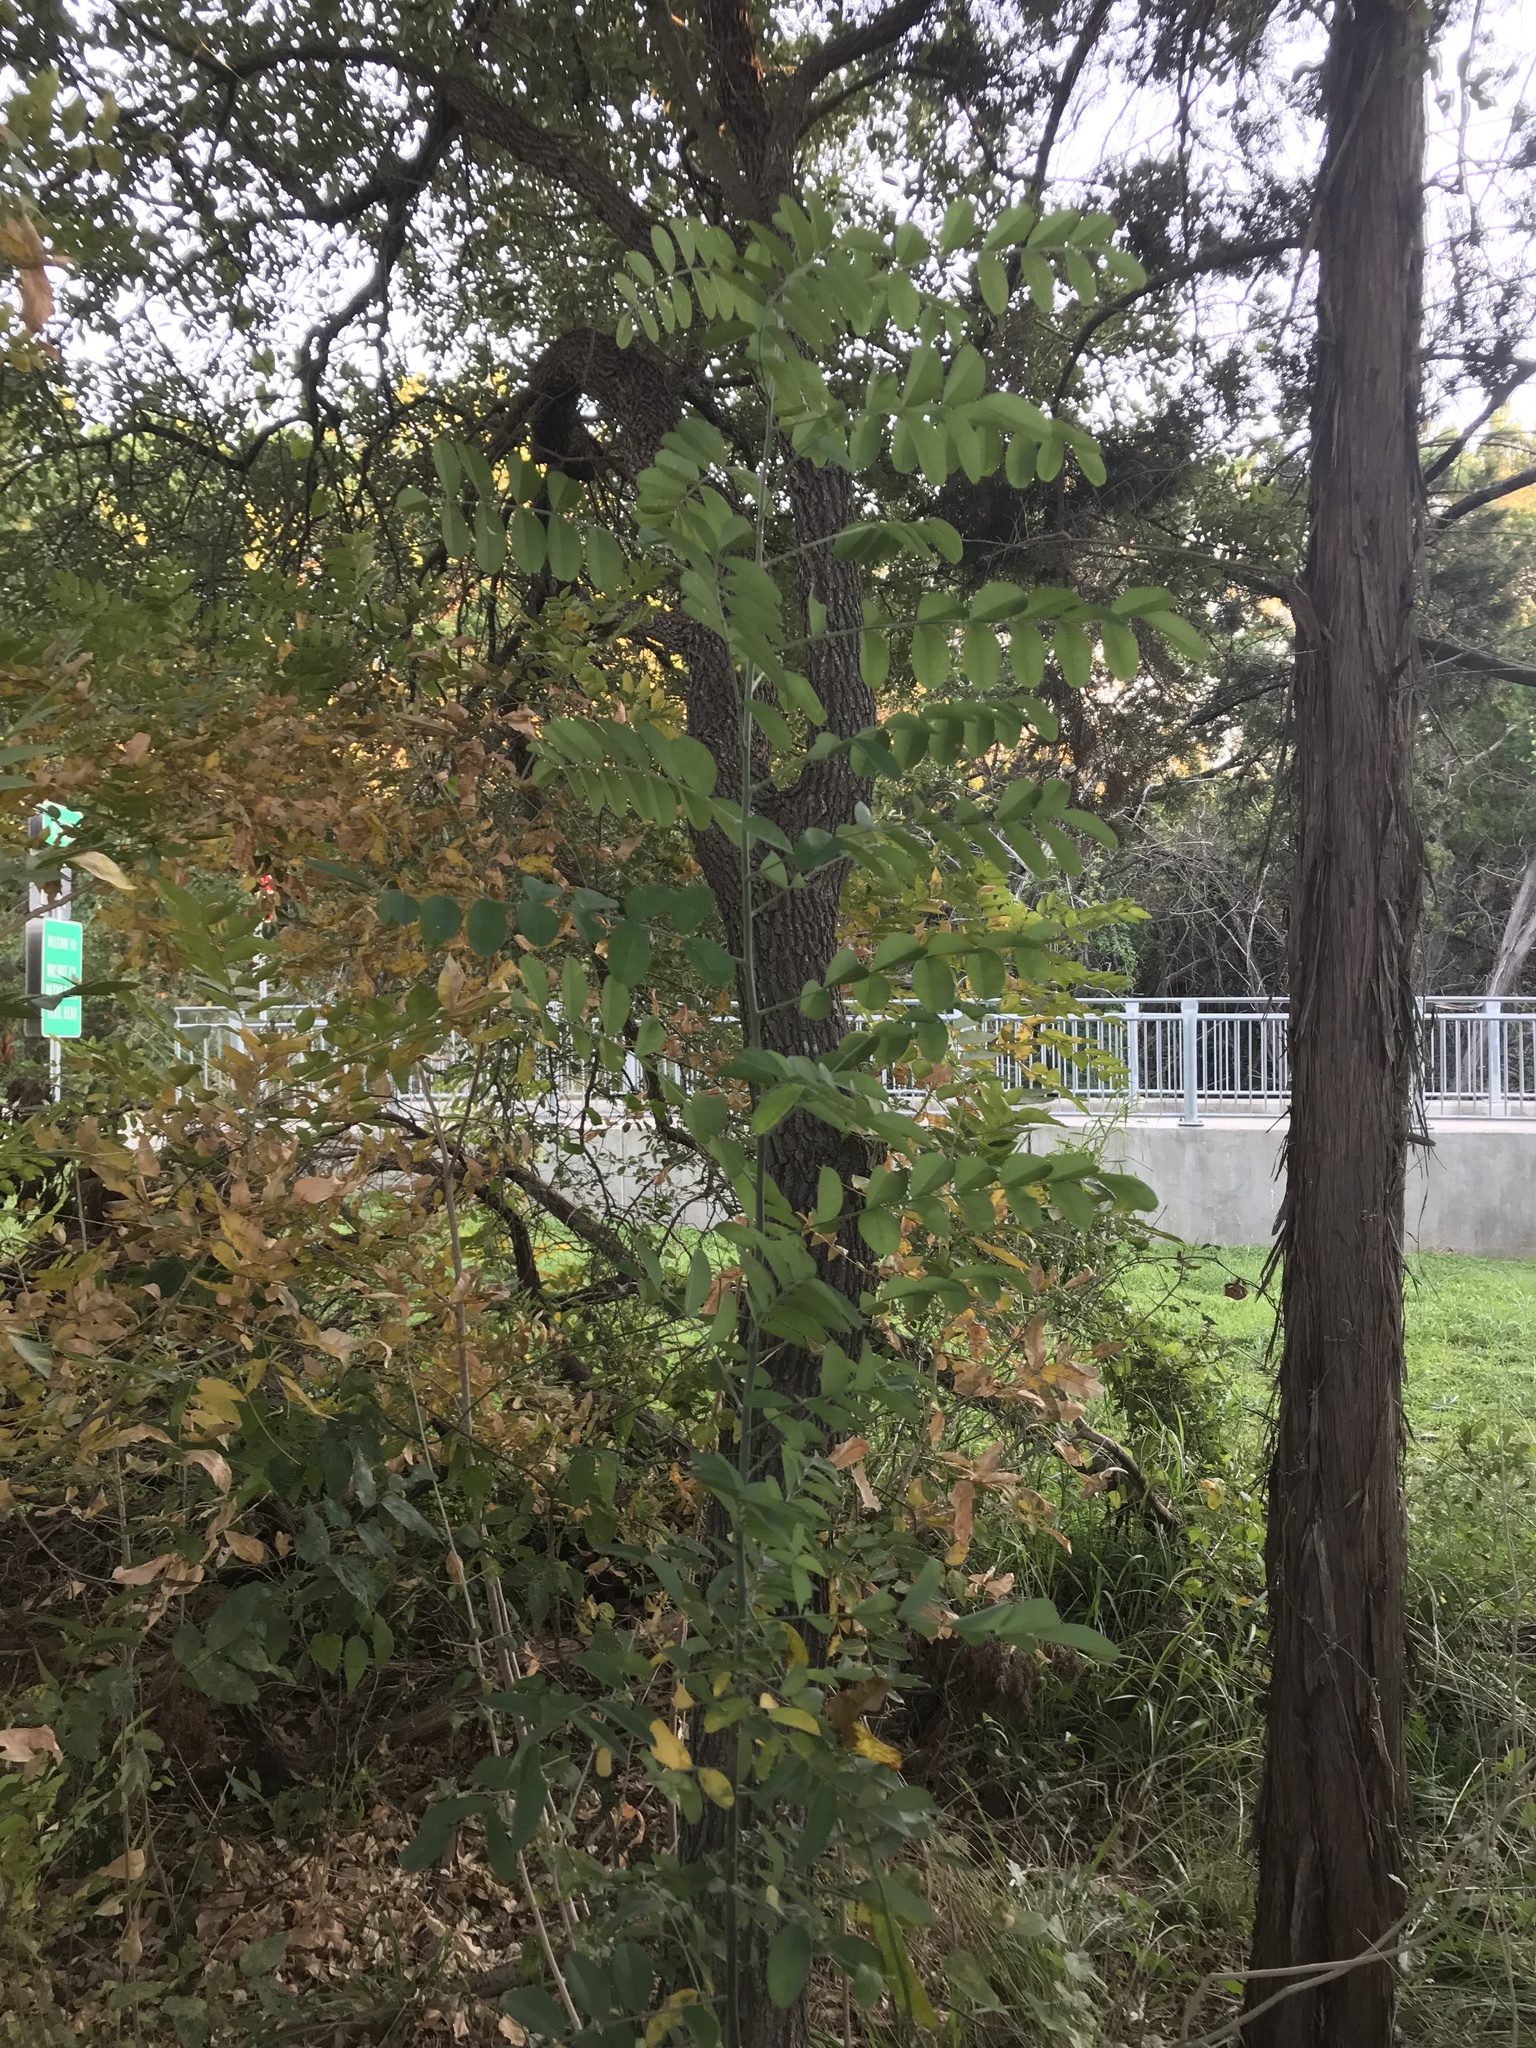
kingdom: Plantae
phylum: Tracheophyta
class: Magnoliopsida
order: Fabales
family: Fabaceae
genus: Styphnolobium
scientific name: Styphnolobium affine
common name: Texas sophora
